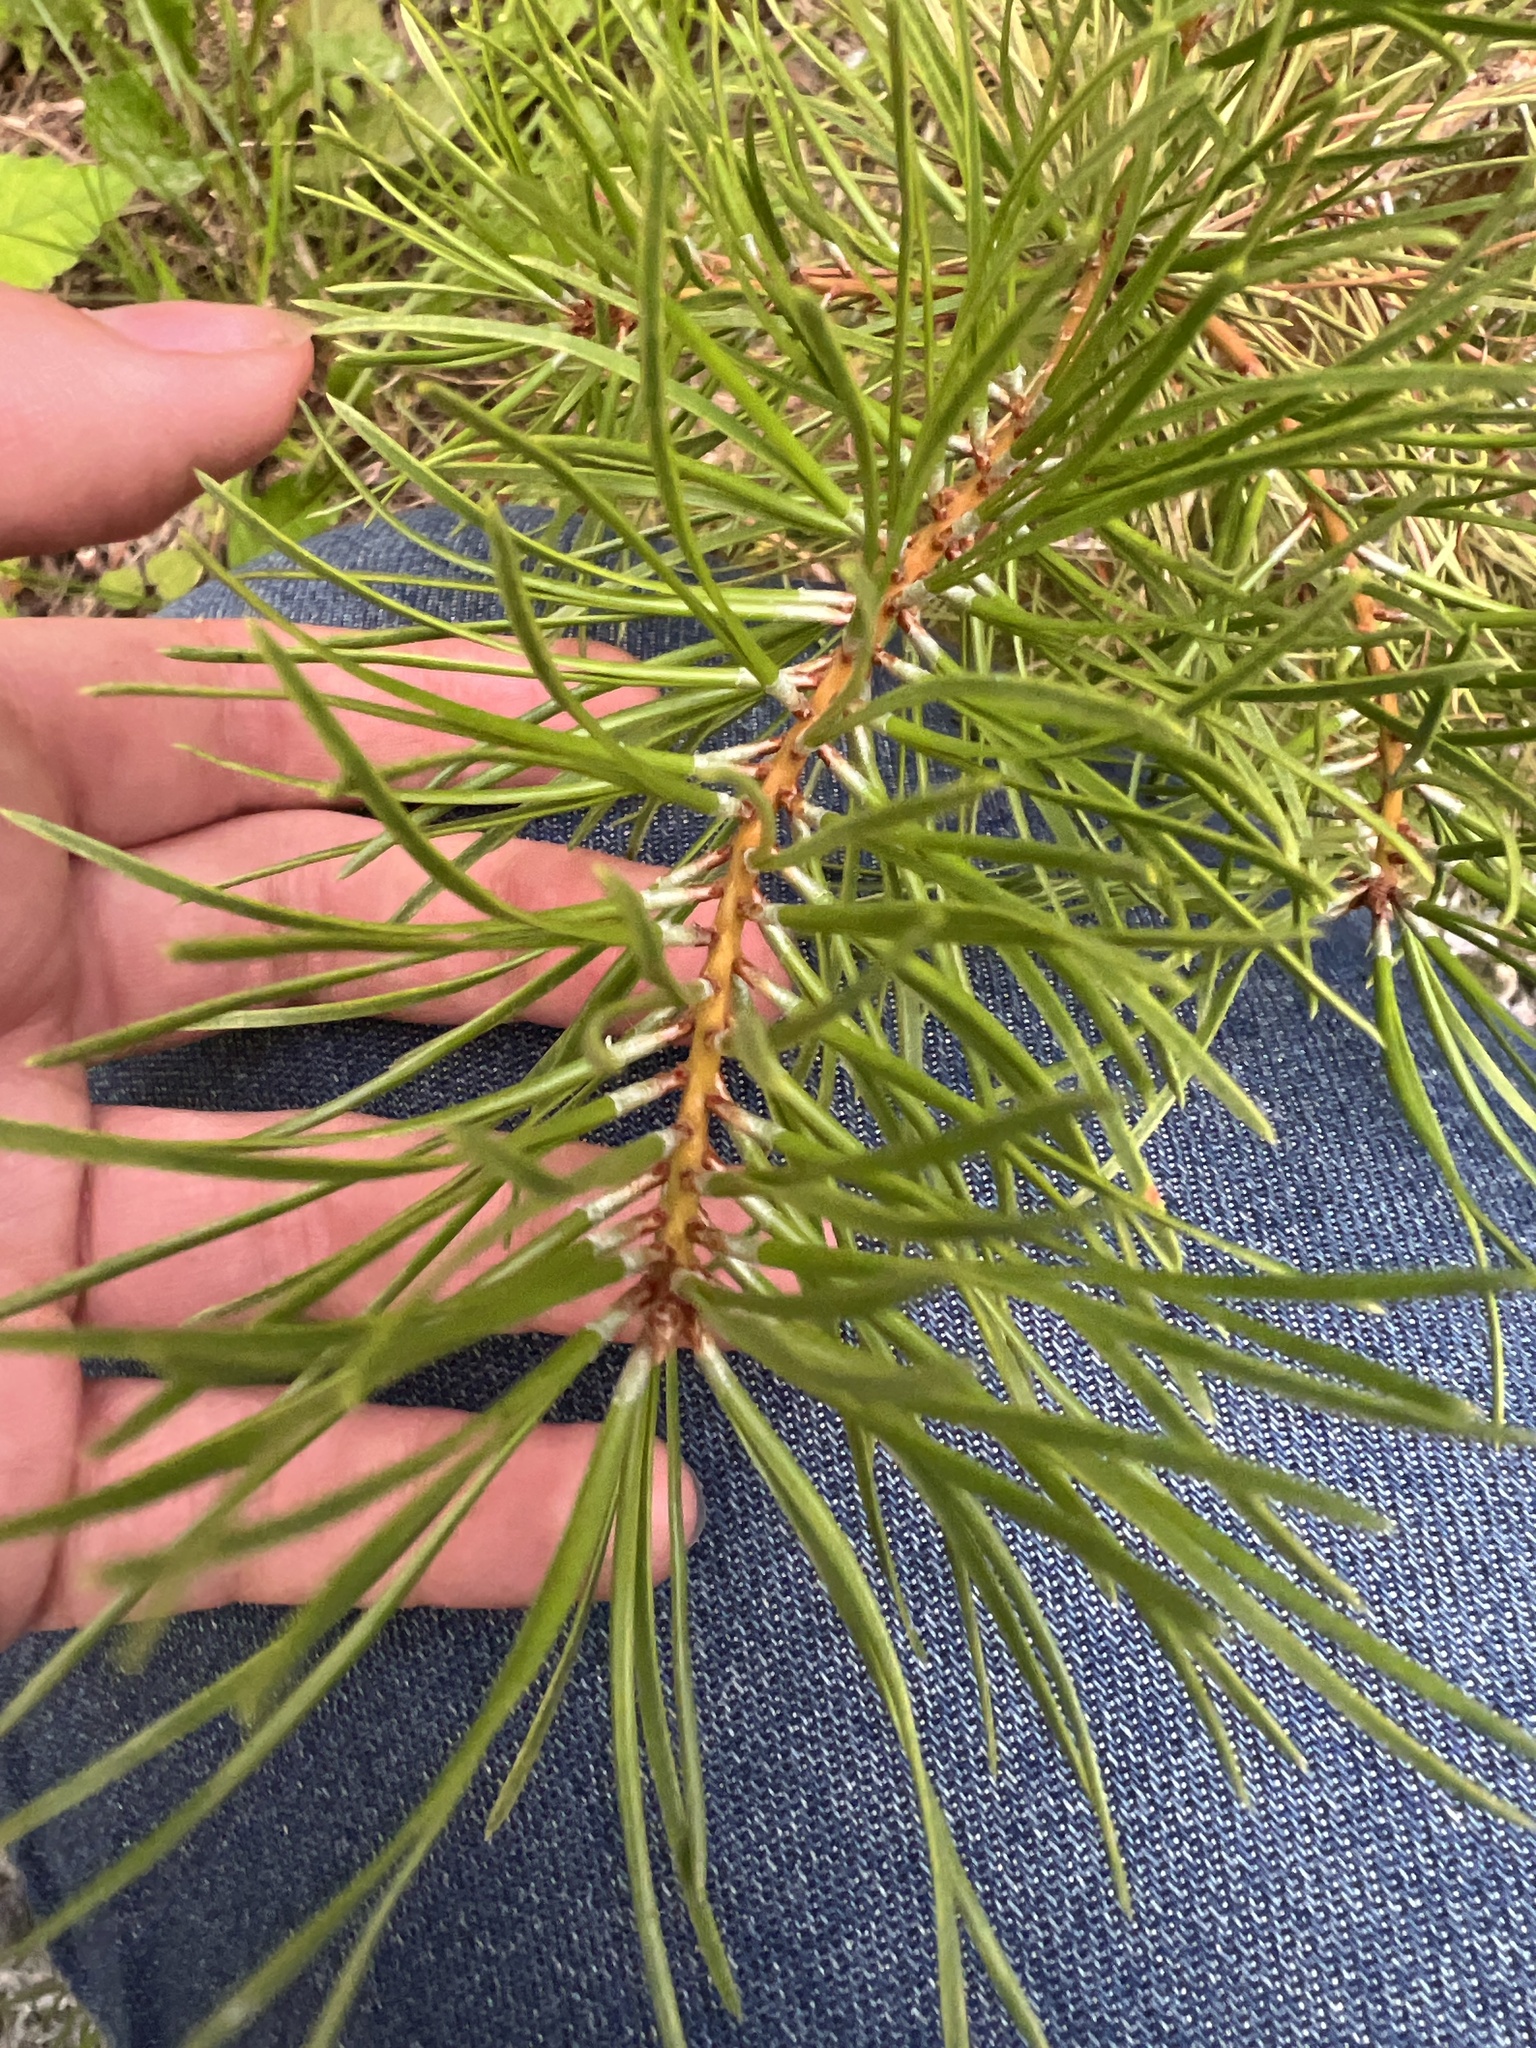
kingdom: Plantae
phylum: Tracheophyta
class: Pinopsida
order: Pinales
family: Pinaceae
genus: Pinus
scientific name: Pinus banksiana
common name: Jack pine
